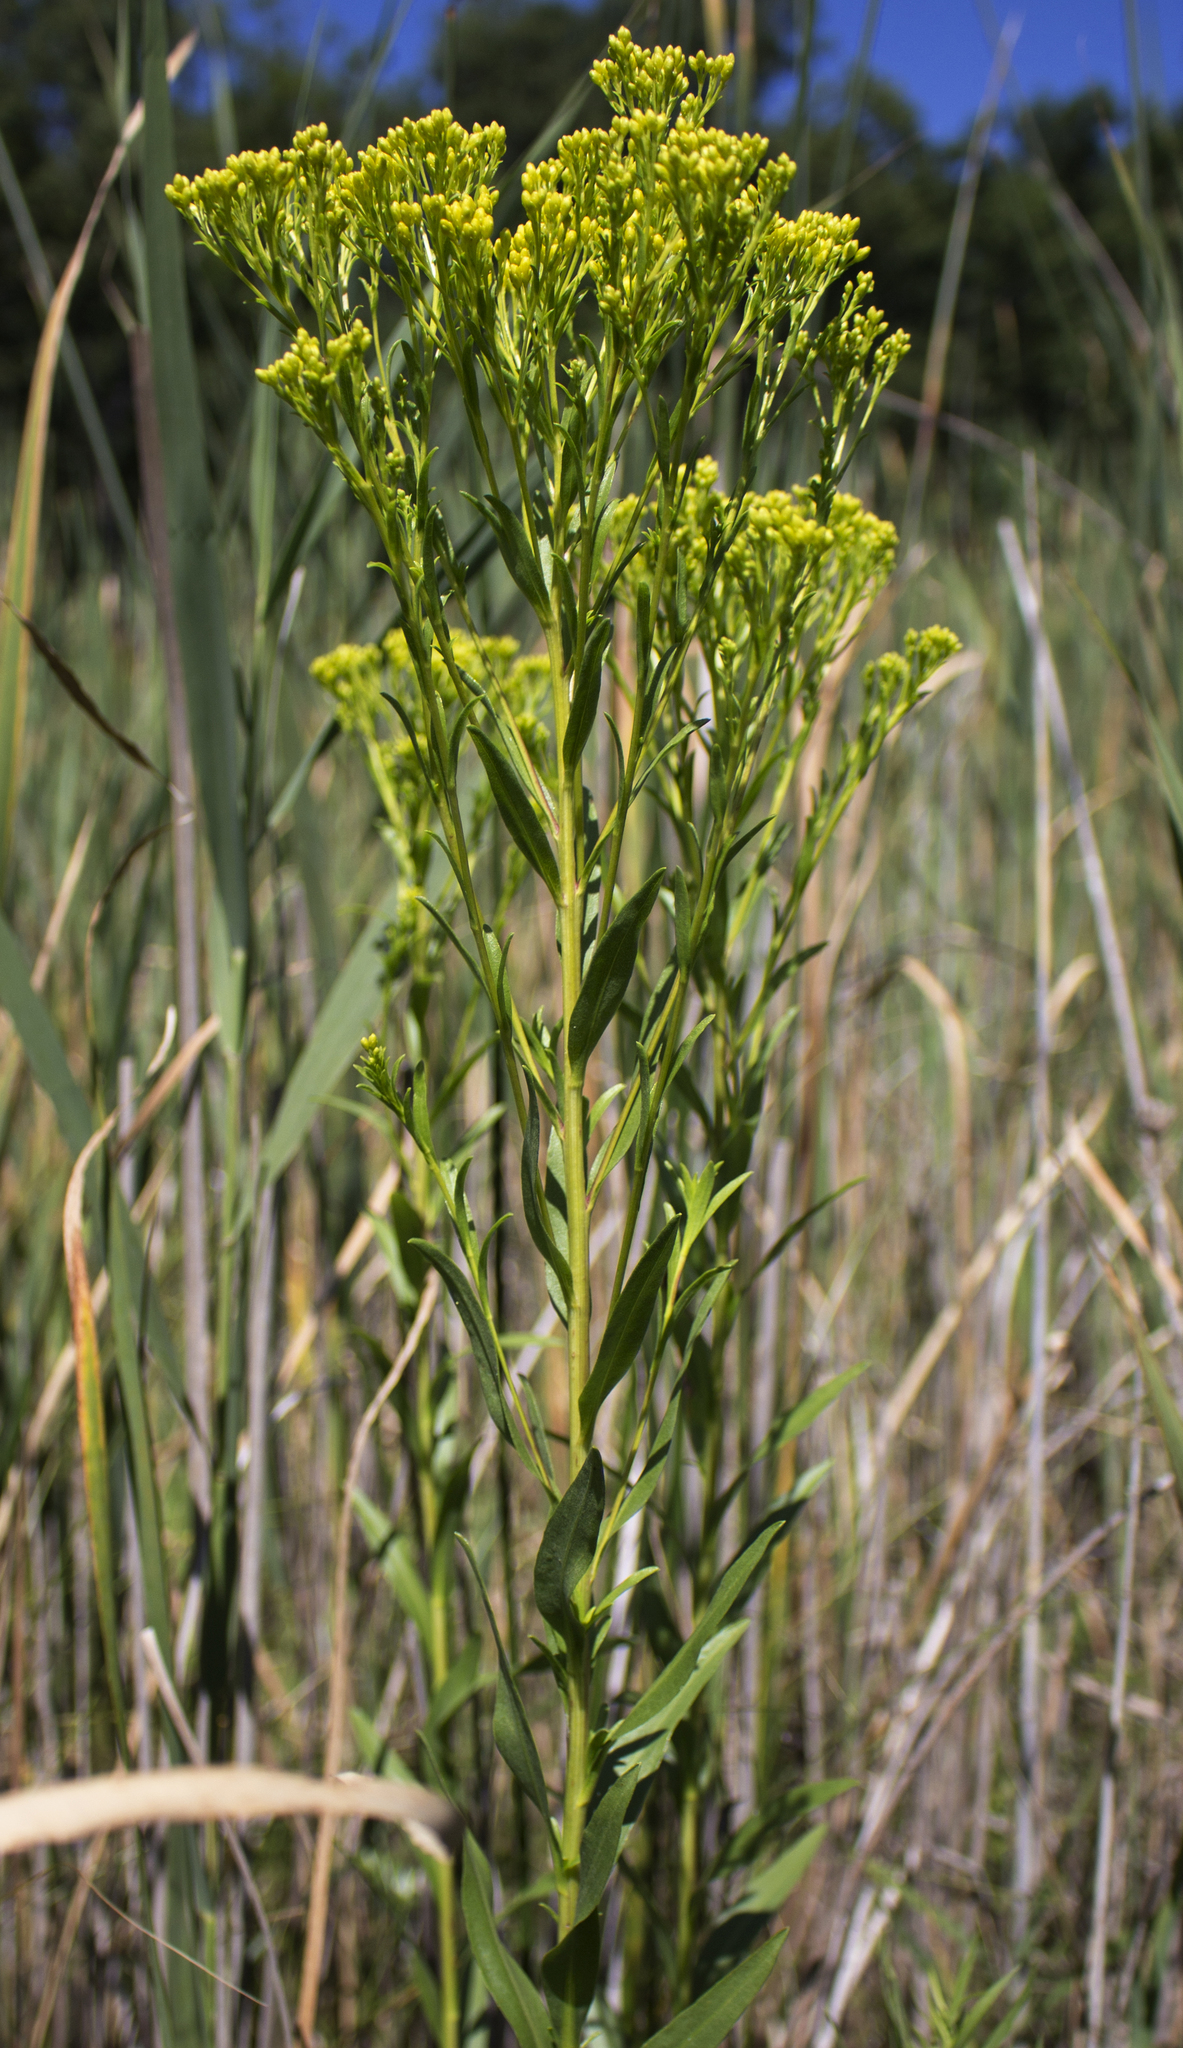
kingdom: Plantae
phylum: Tracheophyta
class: Magnoliopsida
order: Asterales
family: Asteraceae
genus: Solidago
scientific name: Solidago ohioensis
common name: Ohio goldenrod
